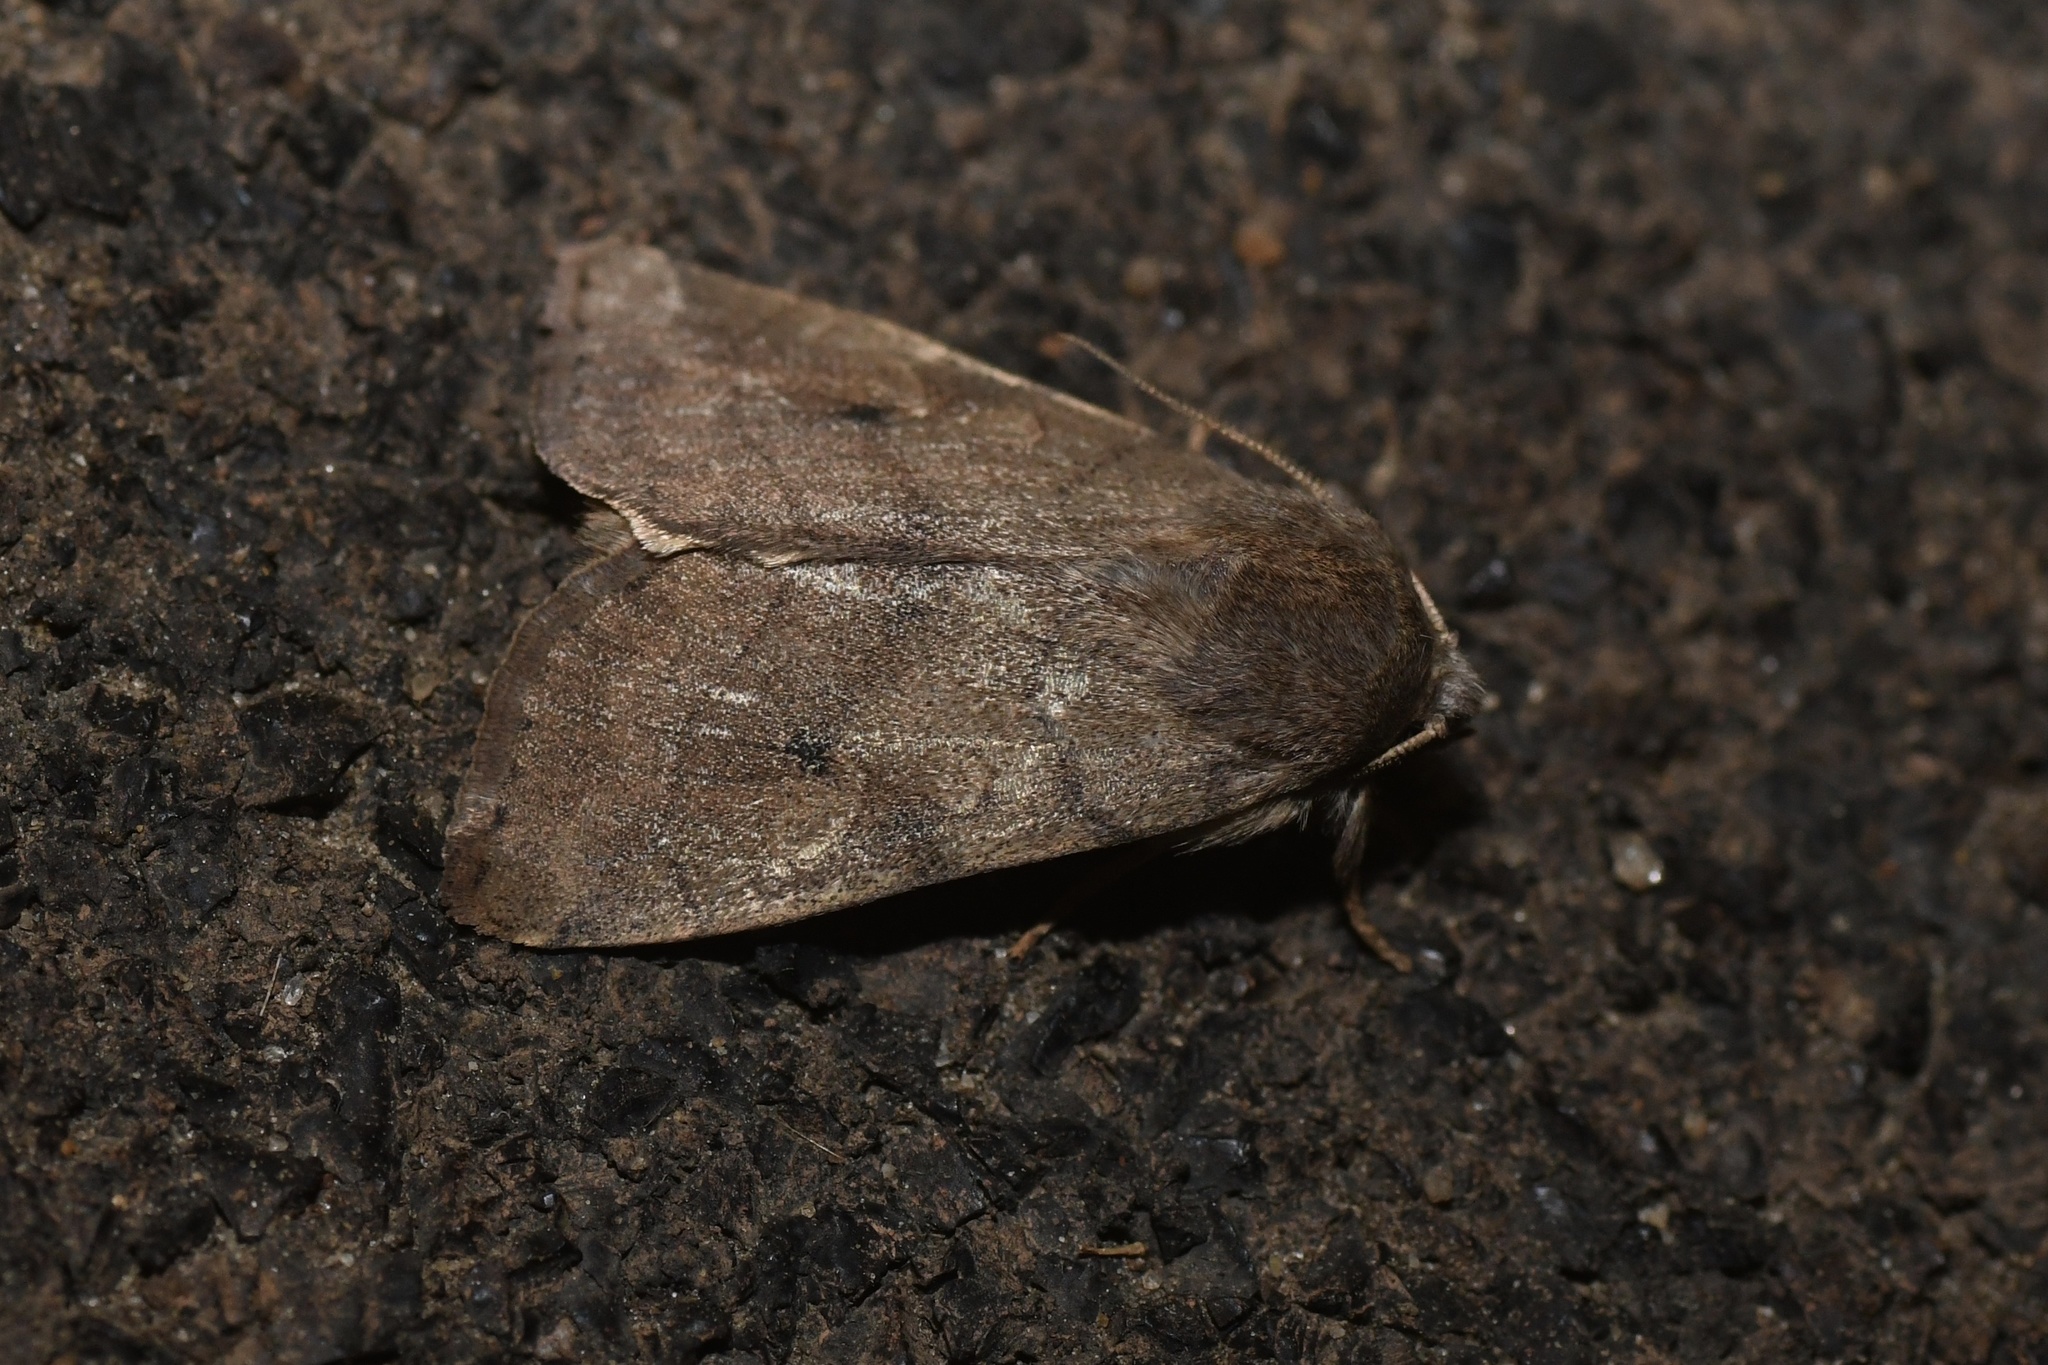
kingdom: Animalia
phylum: Arthropoda
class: Insecta
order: Lepidoptera
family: Noctuidae
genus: Enargia
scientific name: Enargia infumata
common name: Smoked sallow
